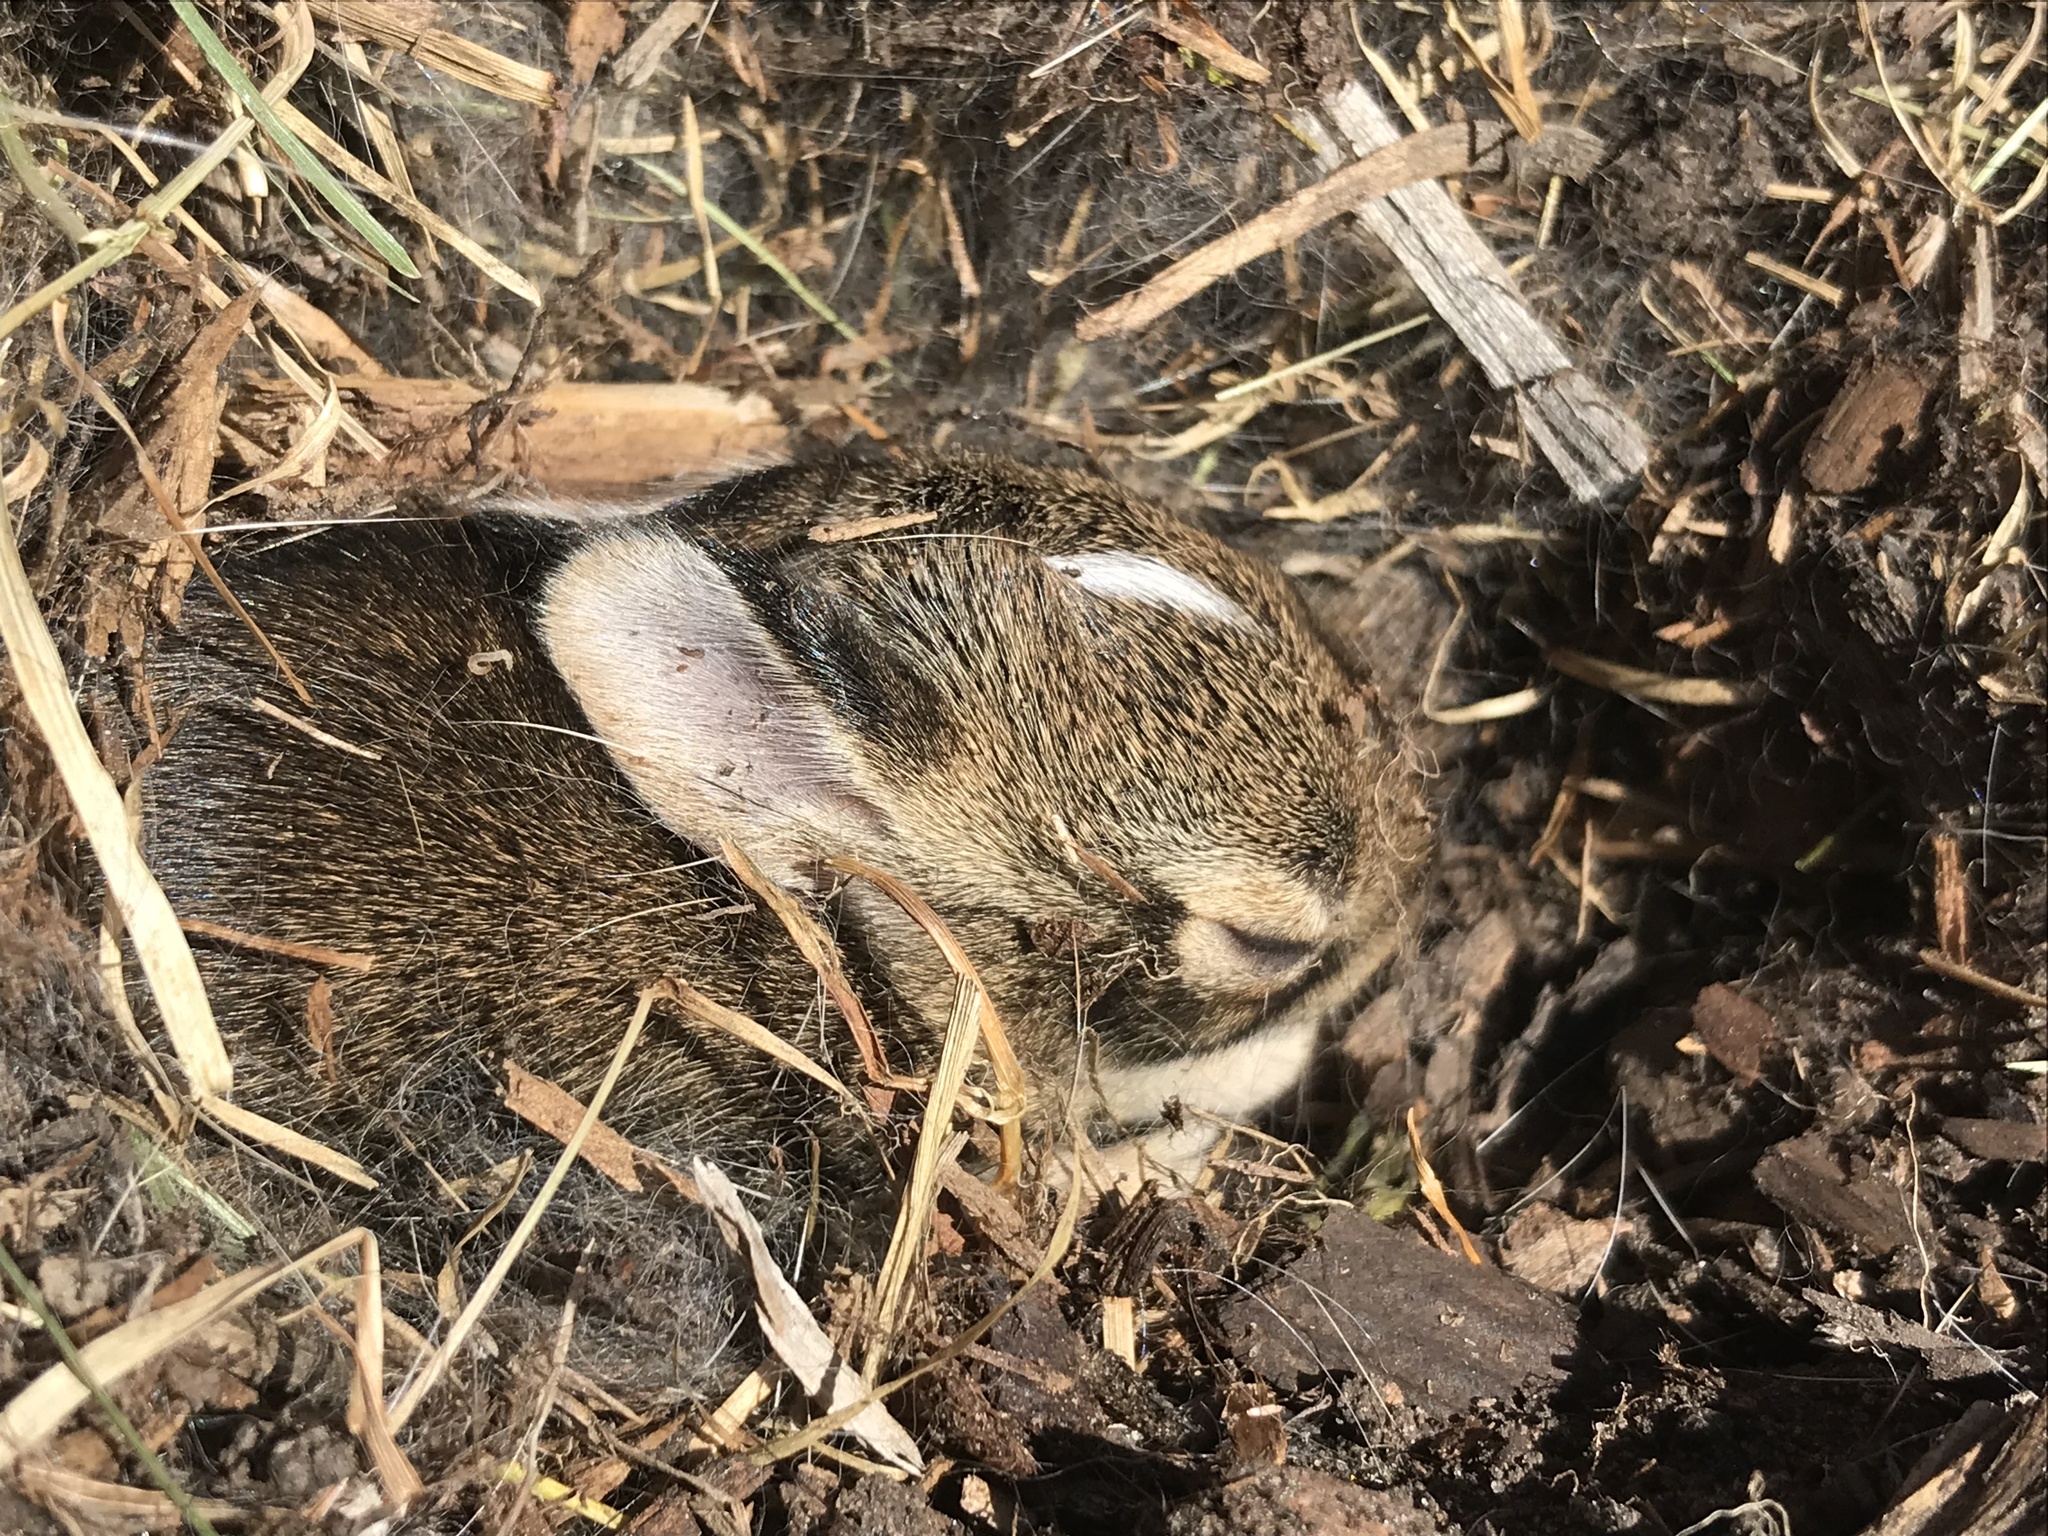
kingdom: Animalia
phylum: Chordata
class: Mammalia
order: Lagomorpha
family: Leporidae
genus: Sylvilagus
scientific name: Sylvilagus floridanus
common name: Eastern cottontail
